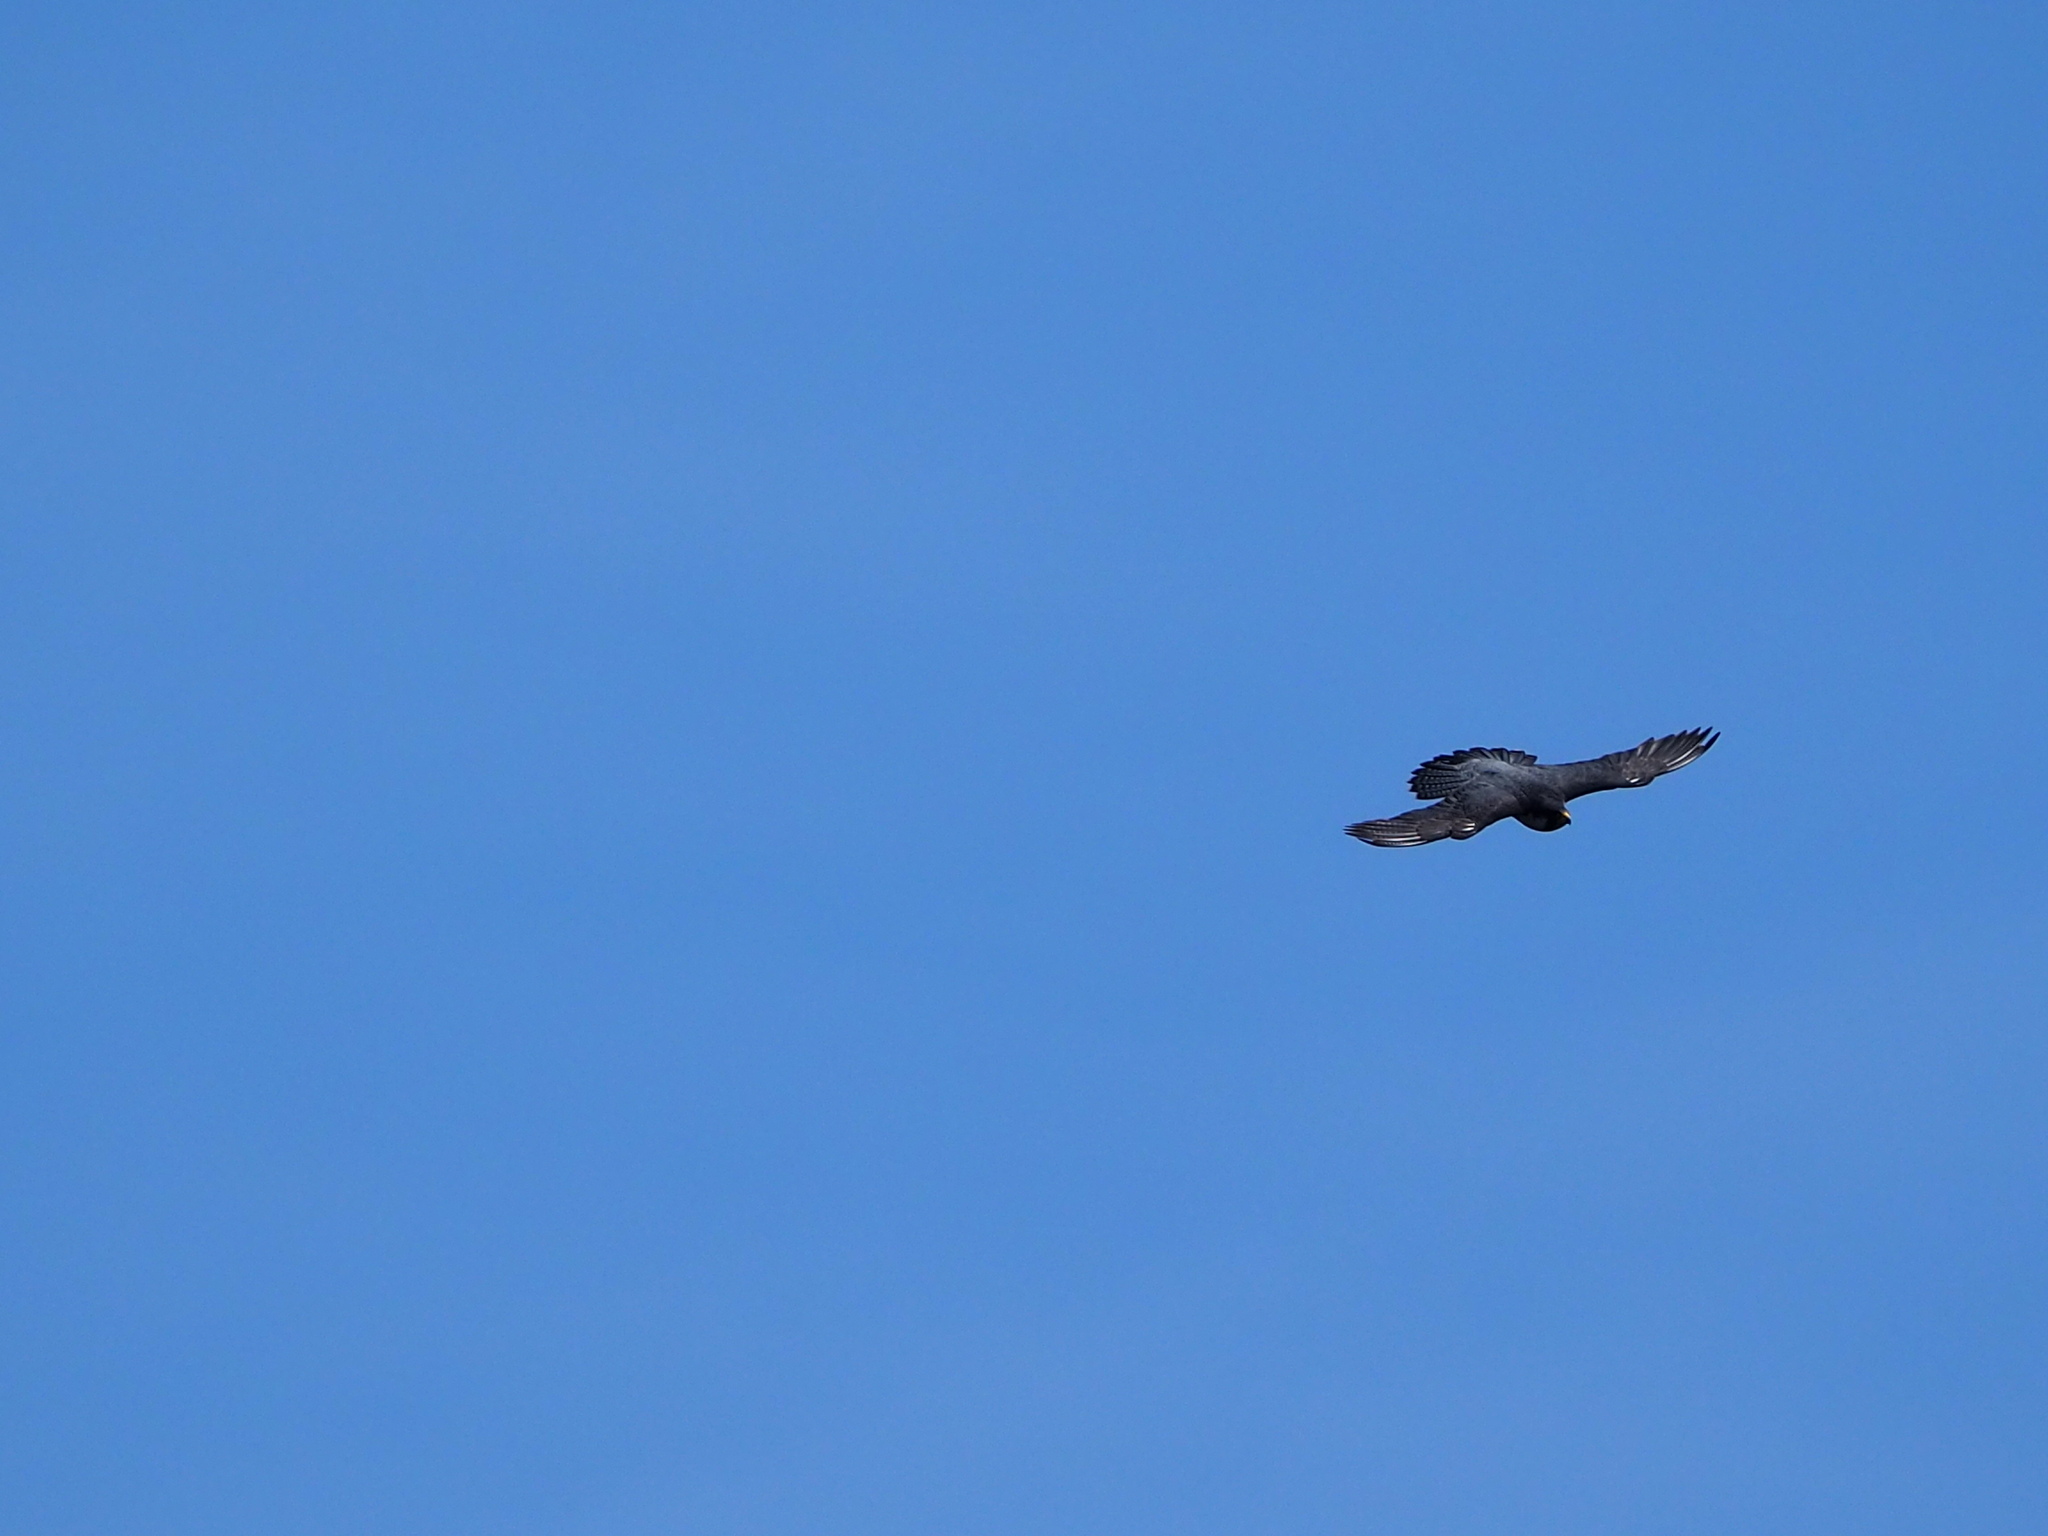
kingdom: Animalia
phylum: Chordata
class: Aves
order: Falconiformes
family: Falconidae
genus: Falco
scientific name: Falco peregrinus
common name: Peregrine falcon
